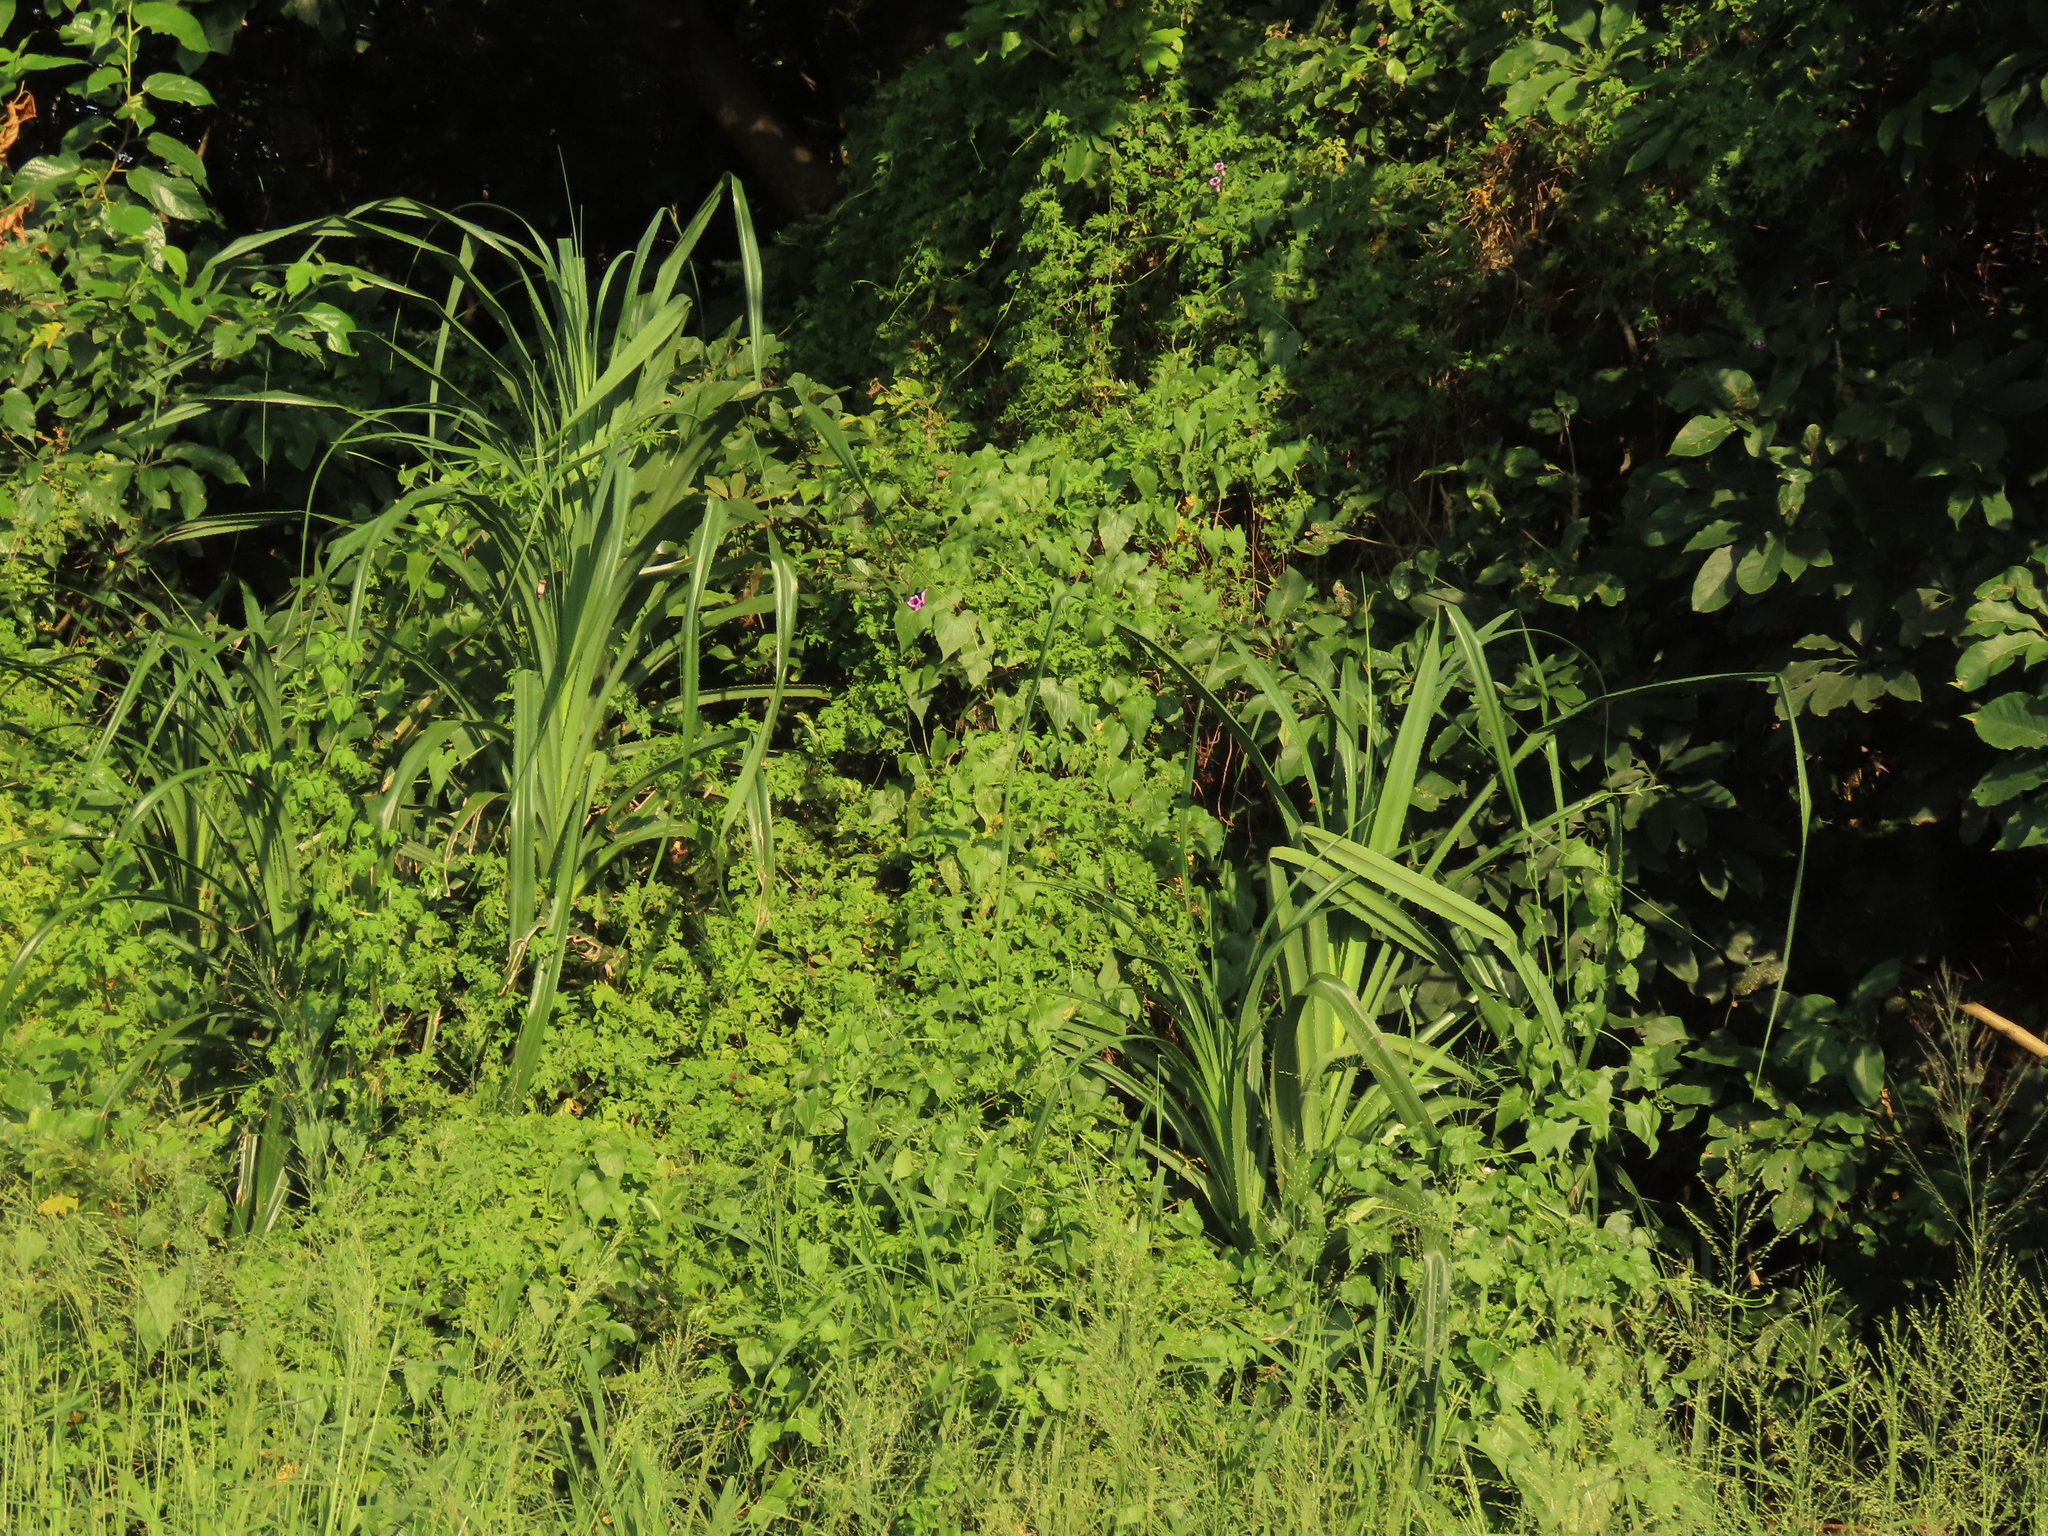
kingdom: Plantae
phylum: Tracheophyta
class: Liliopsida
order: Pandanales
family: Pandanaceae
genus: Pandanus
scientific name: Pandanus odorifer
